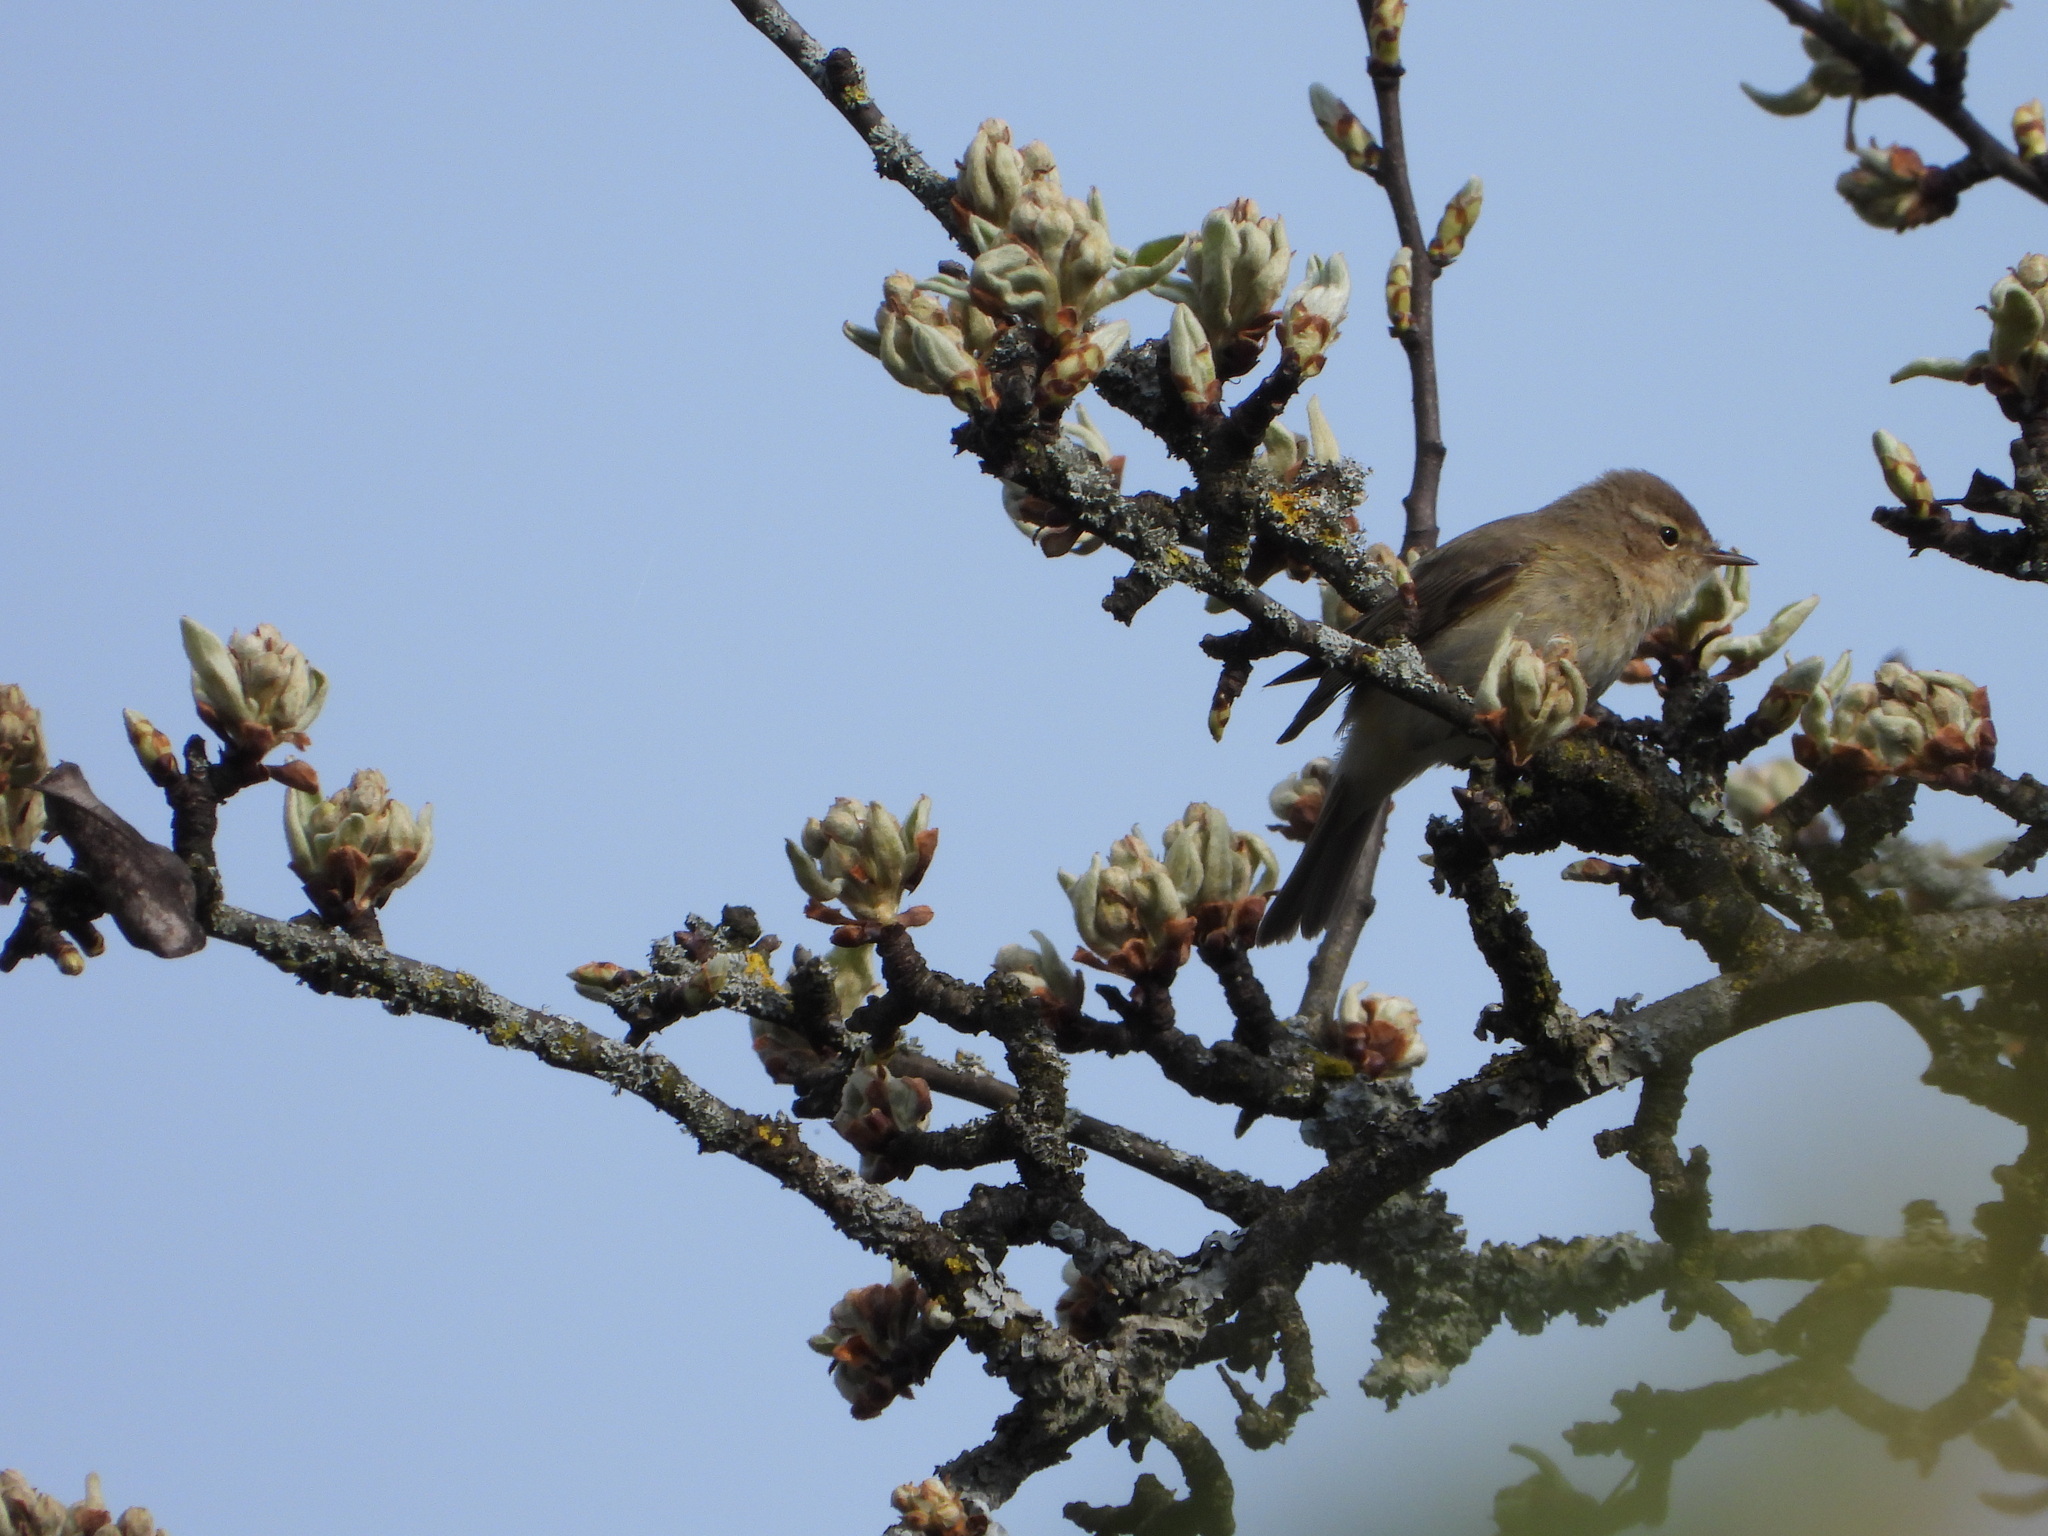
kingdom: Animalia
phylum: Chordata
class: Aves
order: Passeriformes
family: Phylloscopidae
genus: Phylloscopus
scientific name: Phylloscopus collybita
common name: Common chiffchaff
